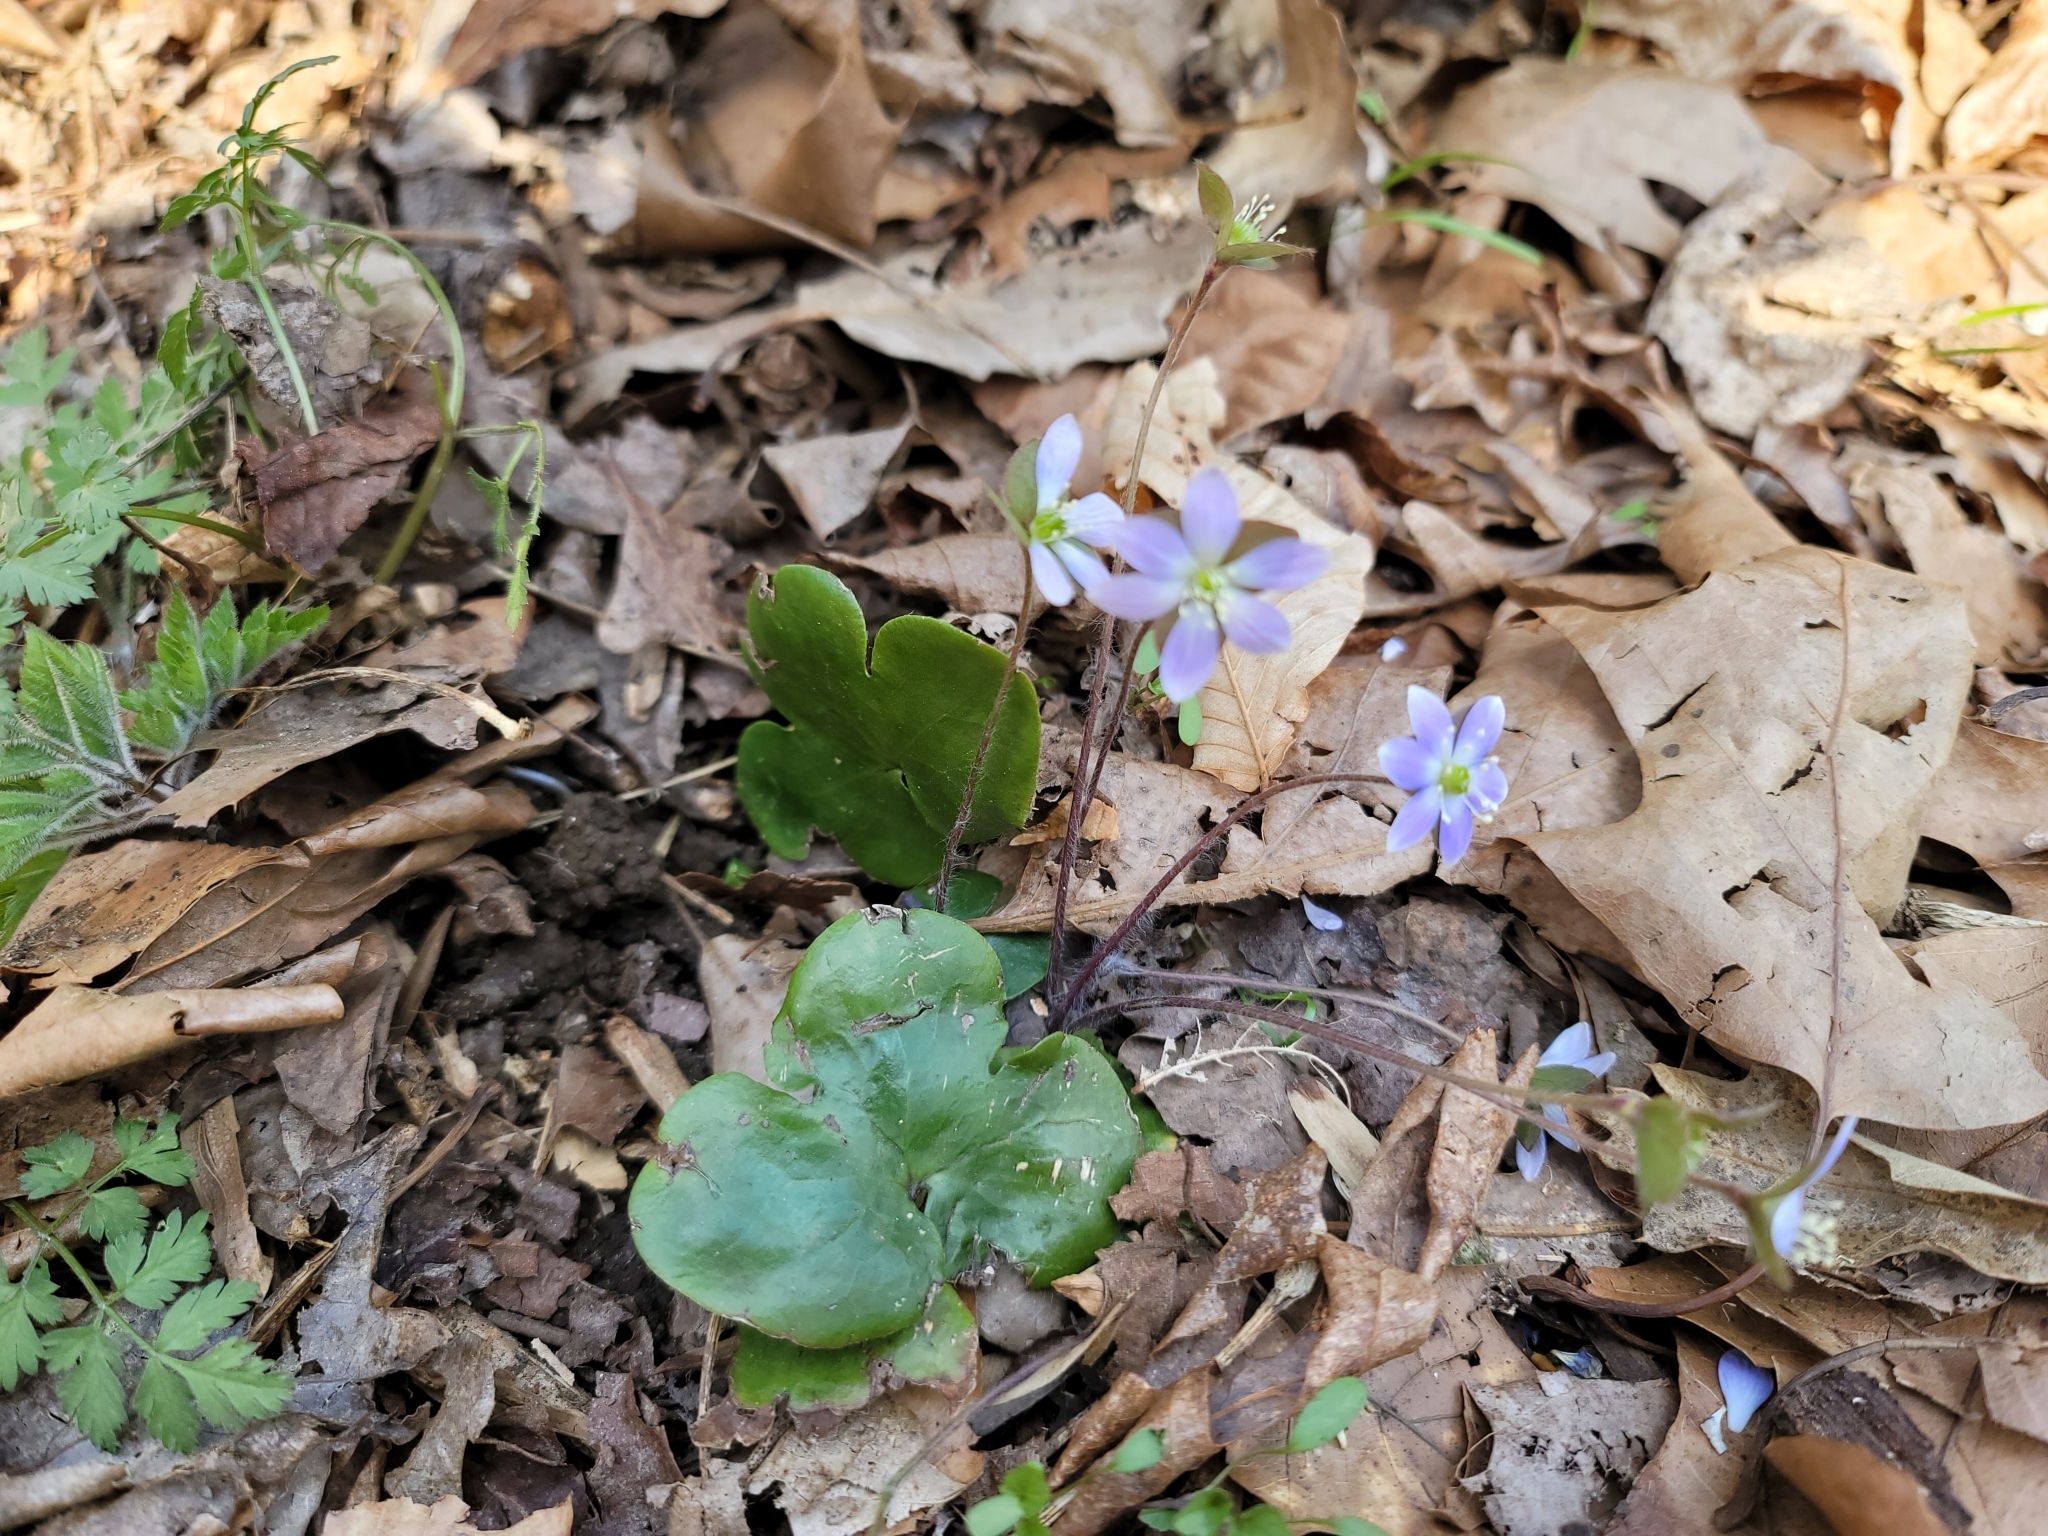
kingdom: Plantae
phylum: Tracheophyta
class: Magnoliopsida
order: Ranunculales
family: Ranunculaceae
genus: Hepatica
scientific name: Hepatica americana
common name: American hepatica
